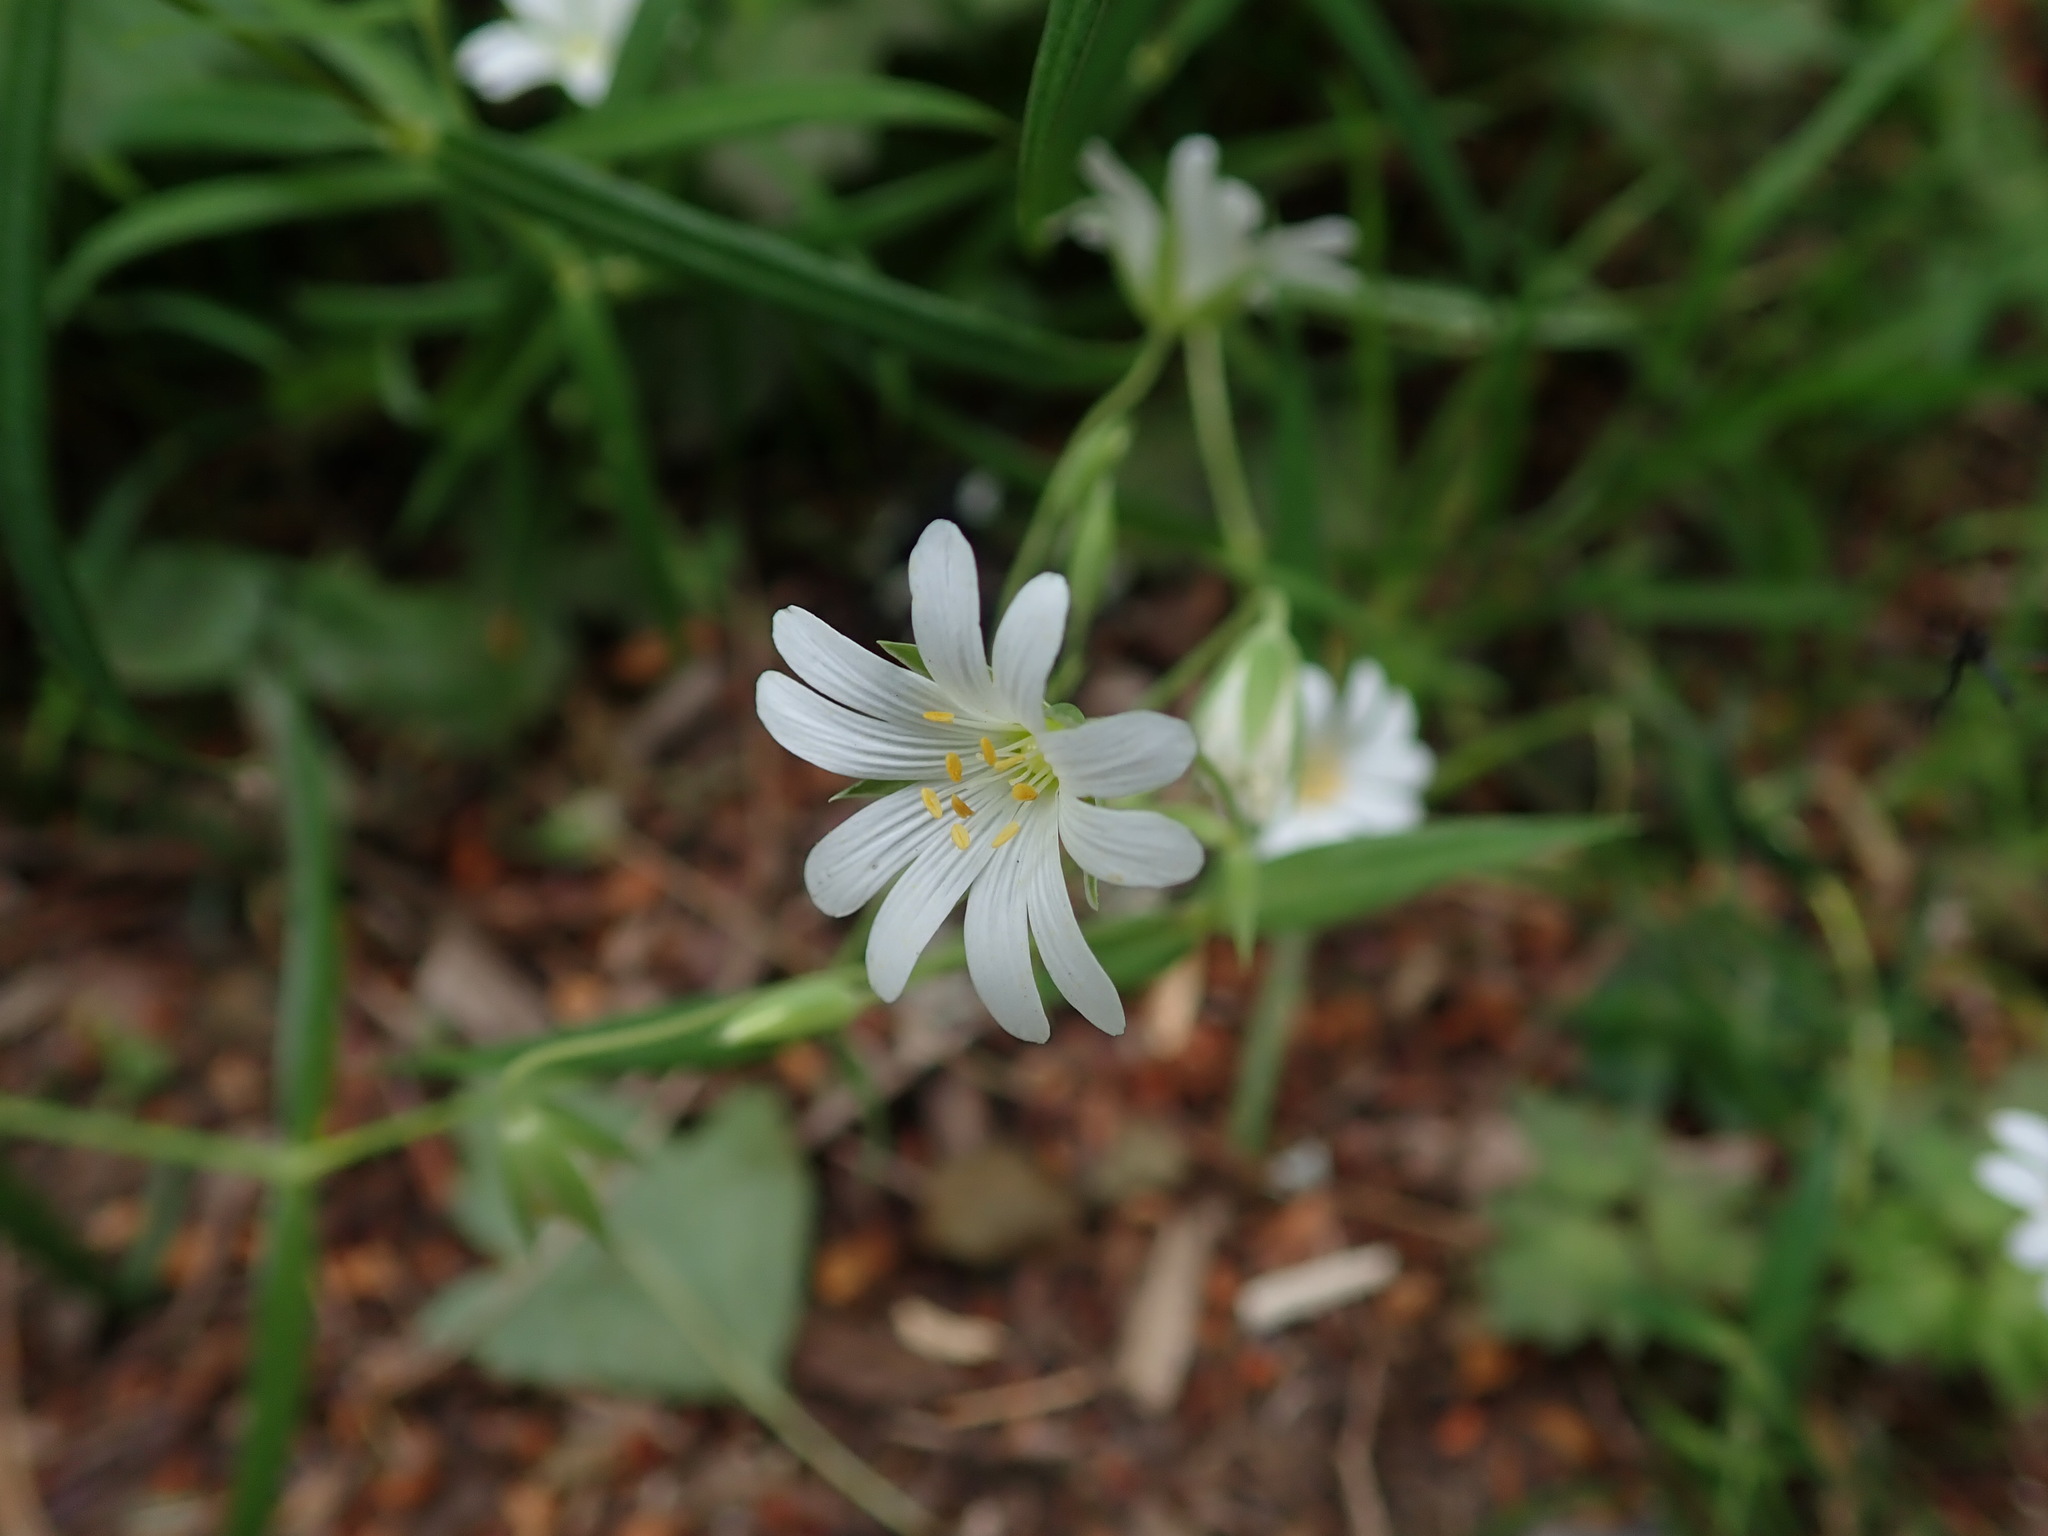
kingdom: Plantae
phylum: Tracheophyta
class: Magnoliopsida
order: Caryophyllales
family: Caryophyllaceae
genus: Rabelera
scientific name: Rabelera holostea
